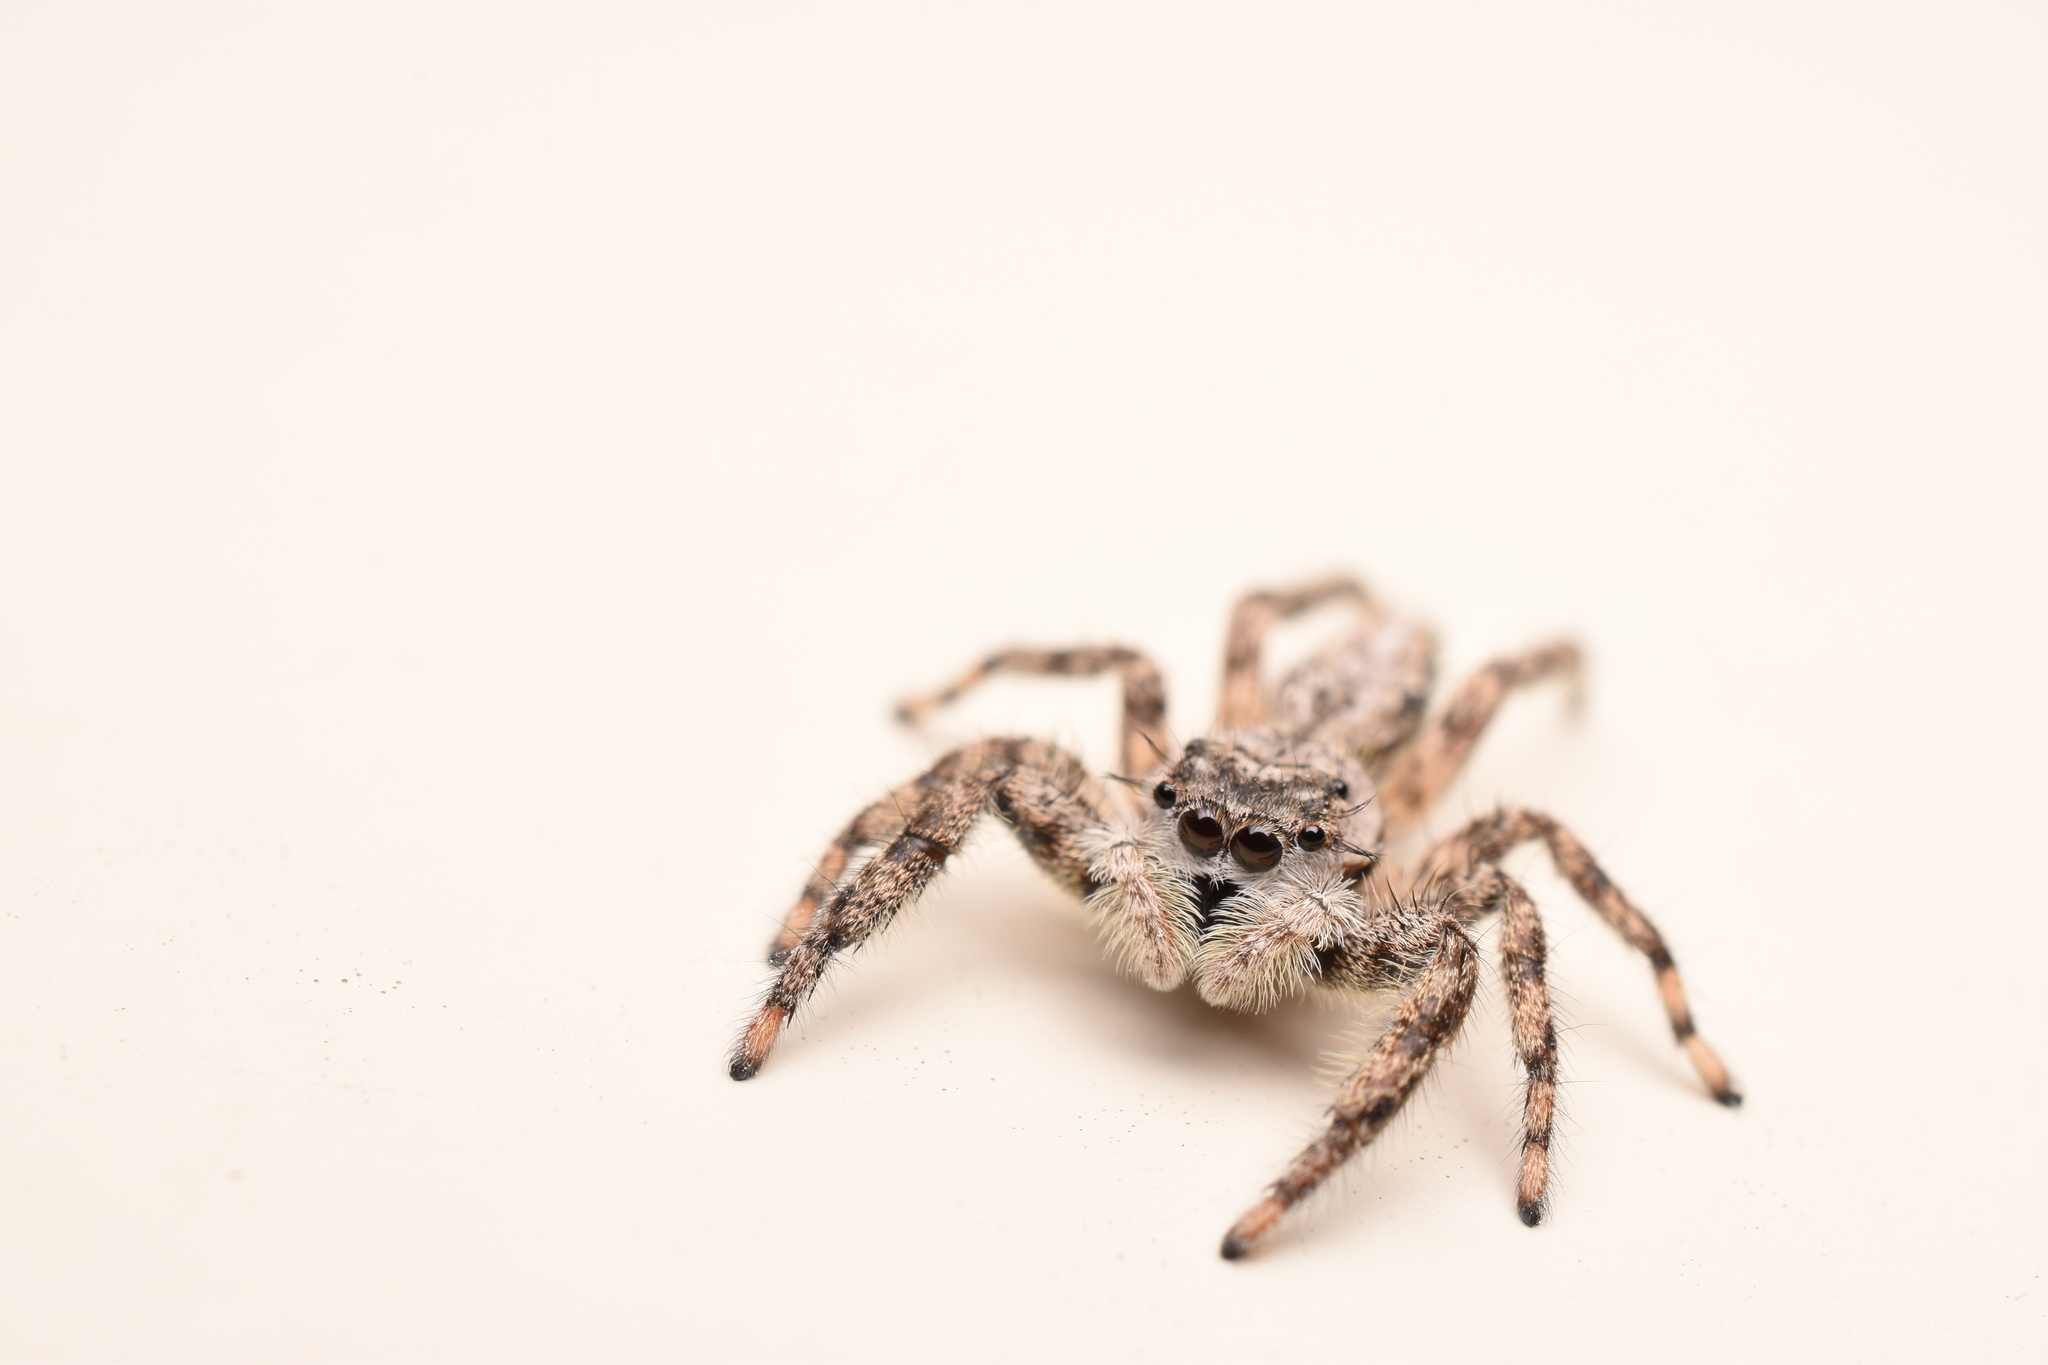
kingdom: Animalia
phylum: Arthropoda
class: Arachnida
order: Araneae
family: Salticidae
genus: Platycryptus
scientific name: Platycryptus undatus
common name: Tan jumping spider
